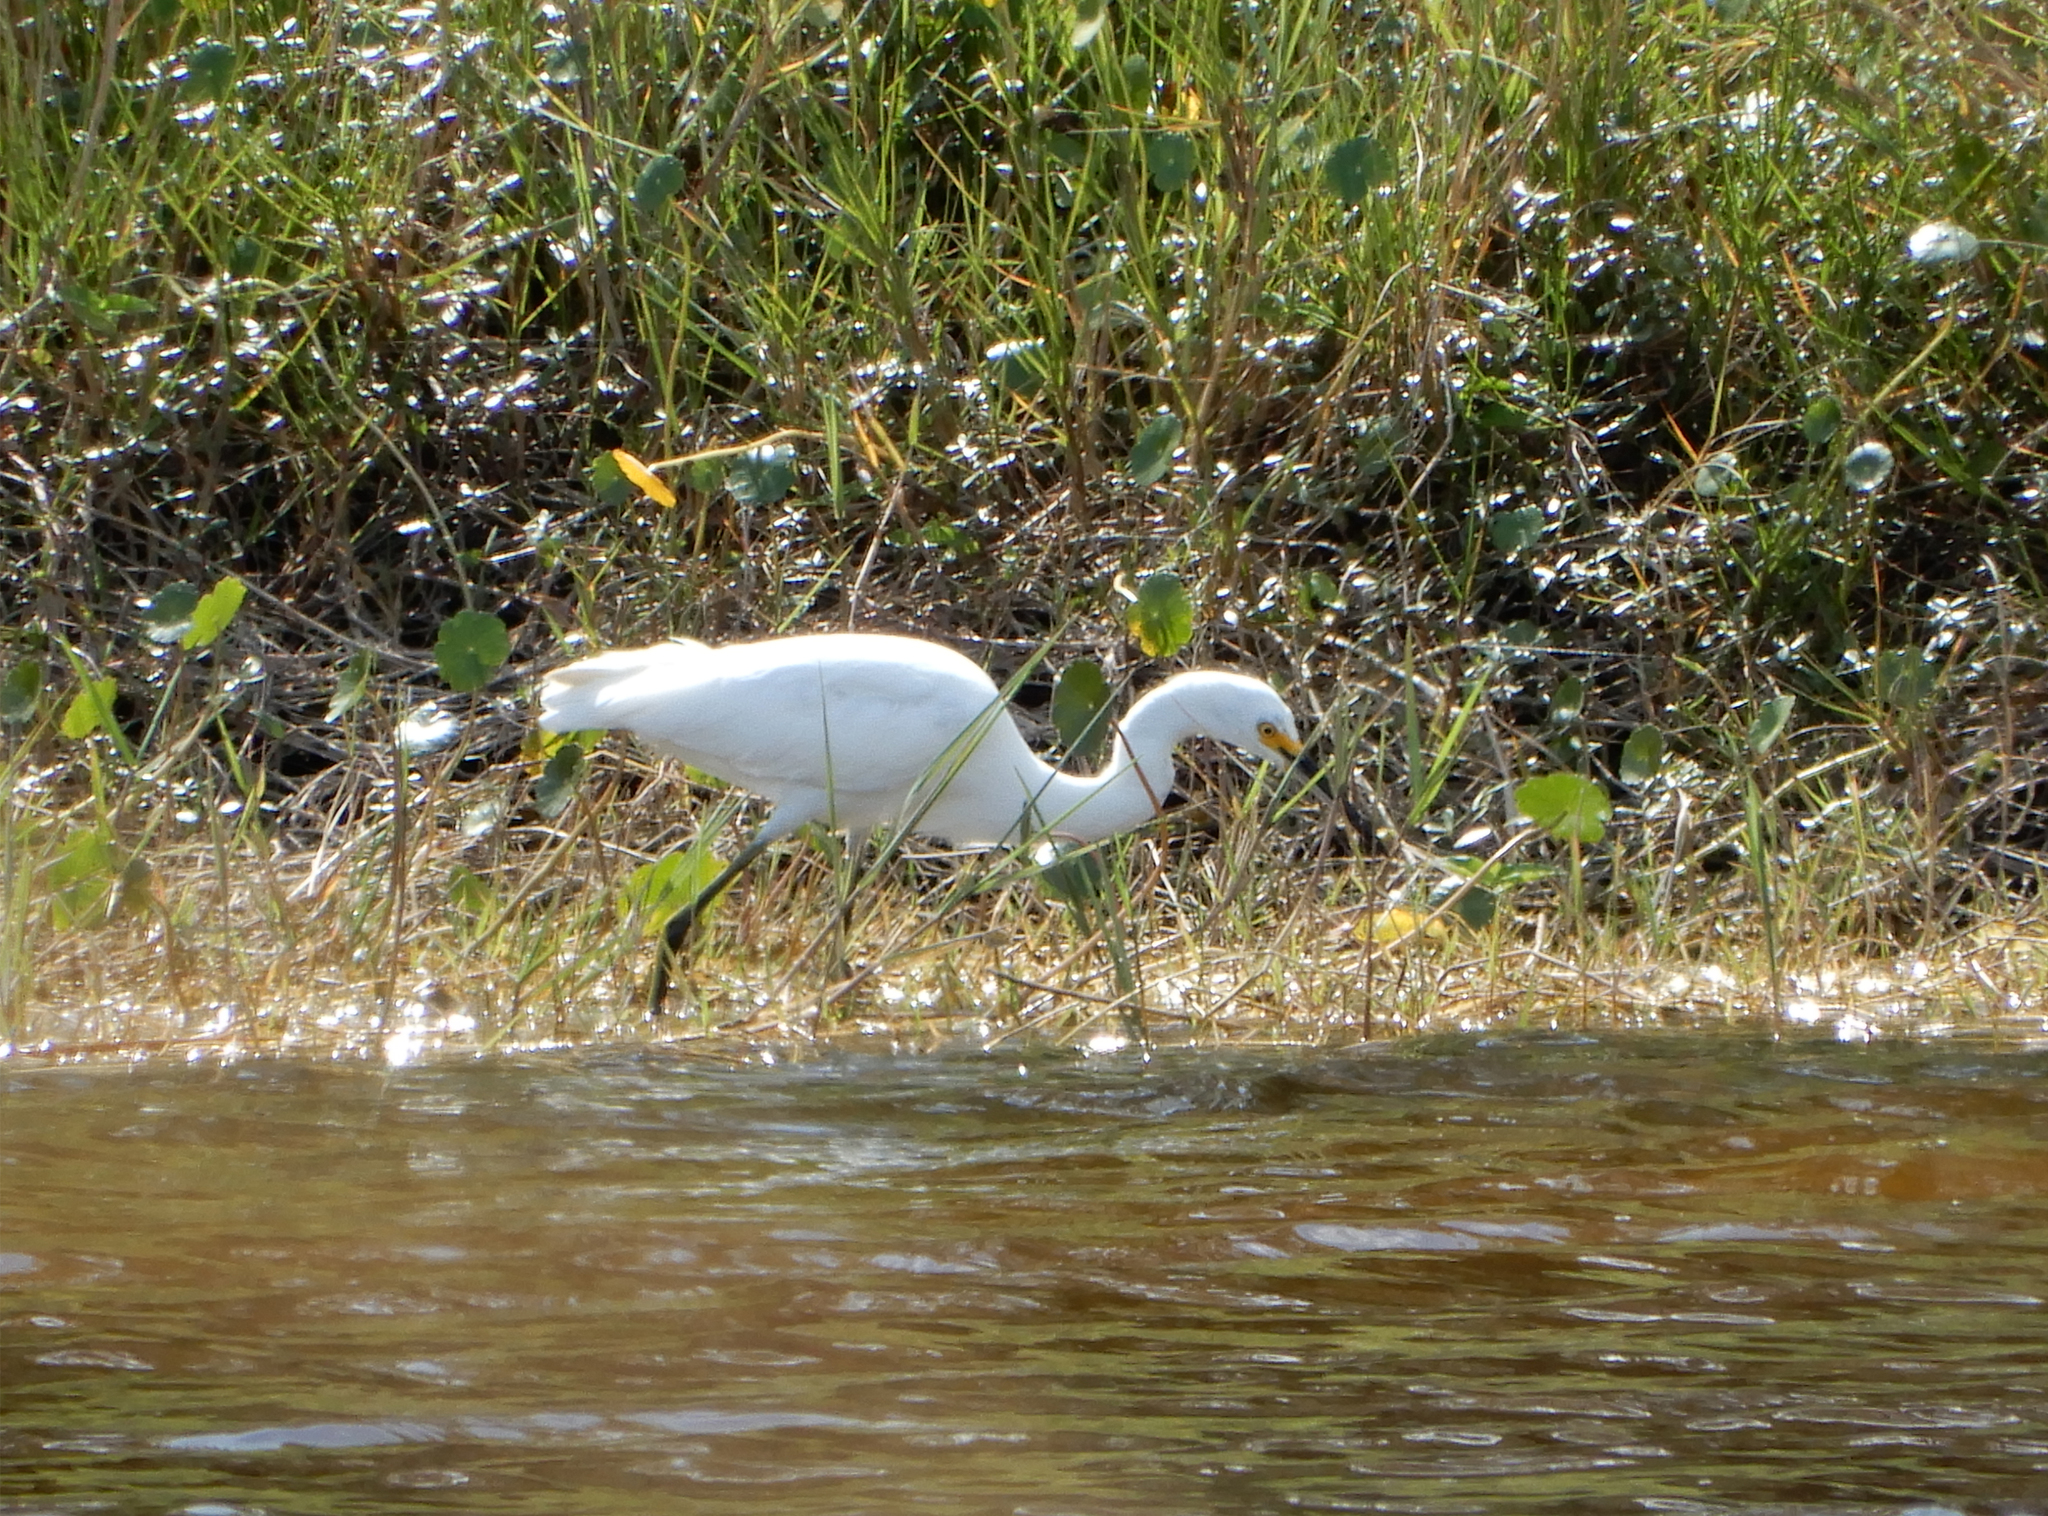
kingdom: Animalia
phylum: Chordata
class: Aves
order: Pelecaniformes
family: Ardeidae
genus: Egretta
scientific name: Egretta thula
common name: Snowy egret
